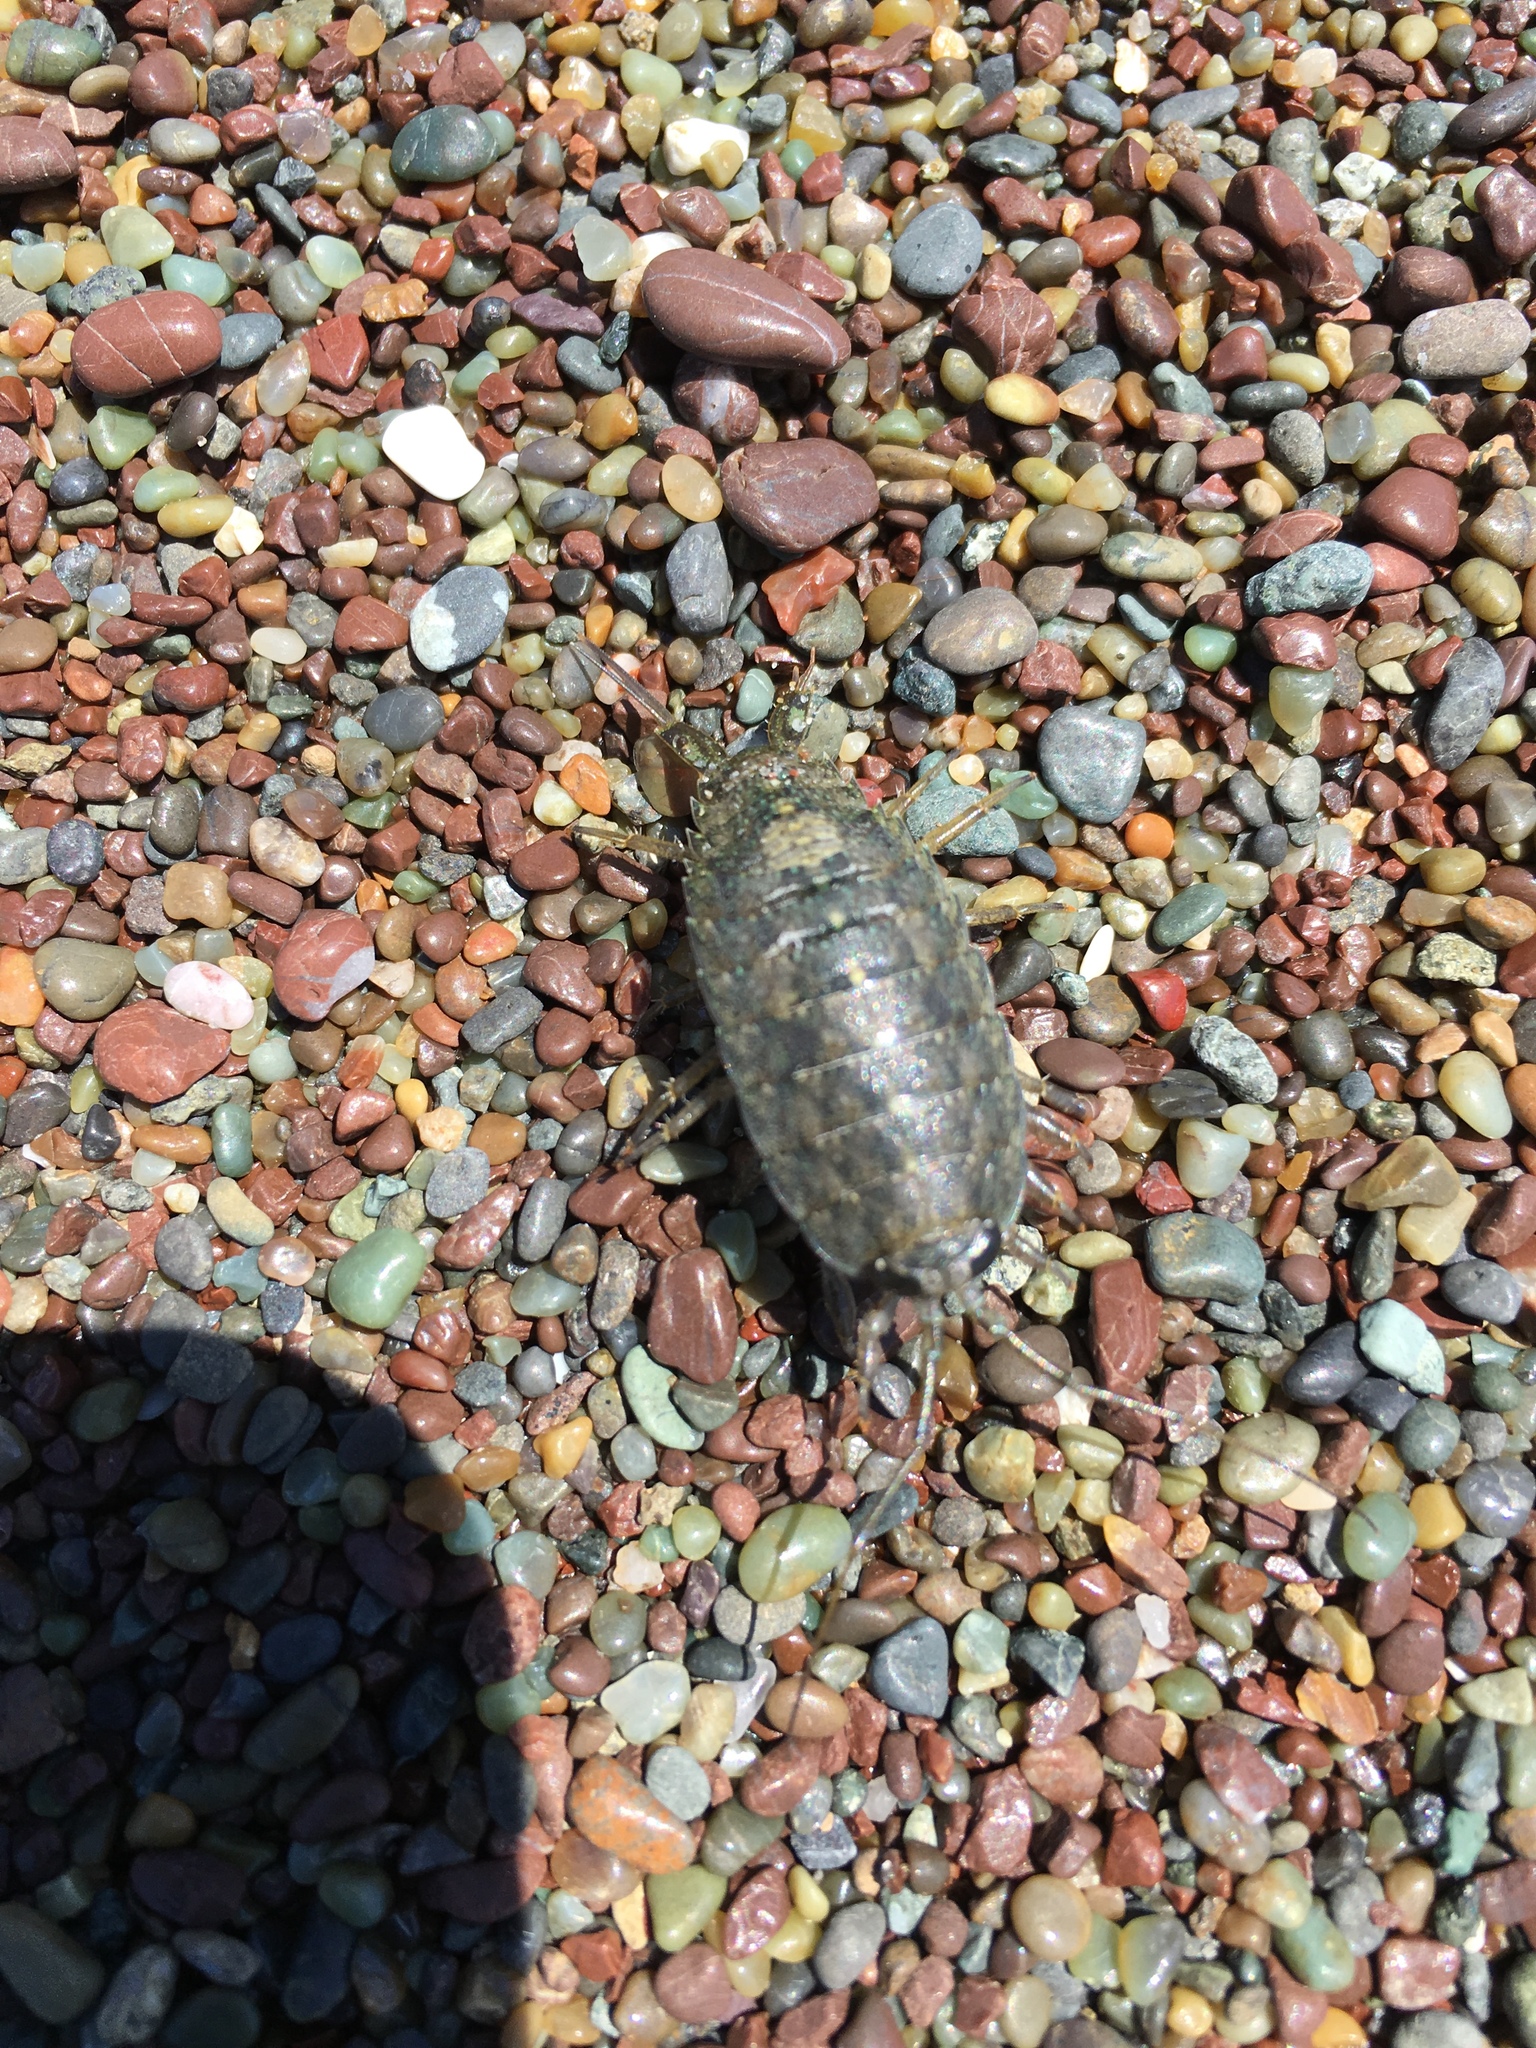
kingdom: Animalia
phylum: Arthropoda
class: Malacostraca
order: Isopoda
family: Ligiidae
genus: Ligia
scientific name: Ligia occidentalis
